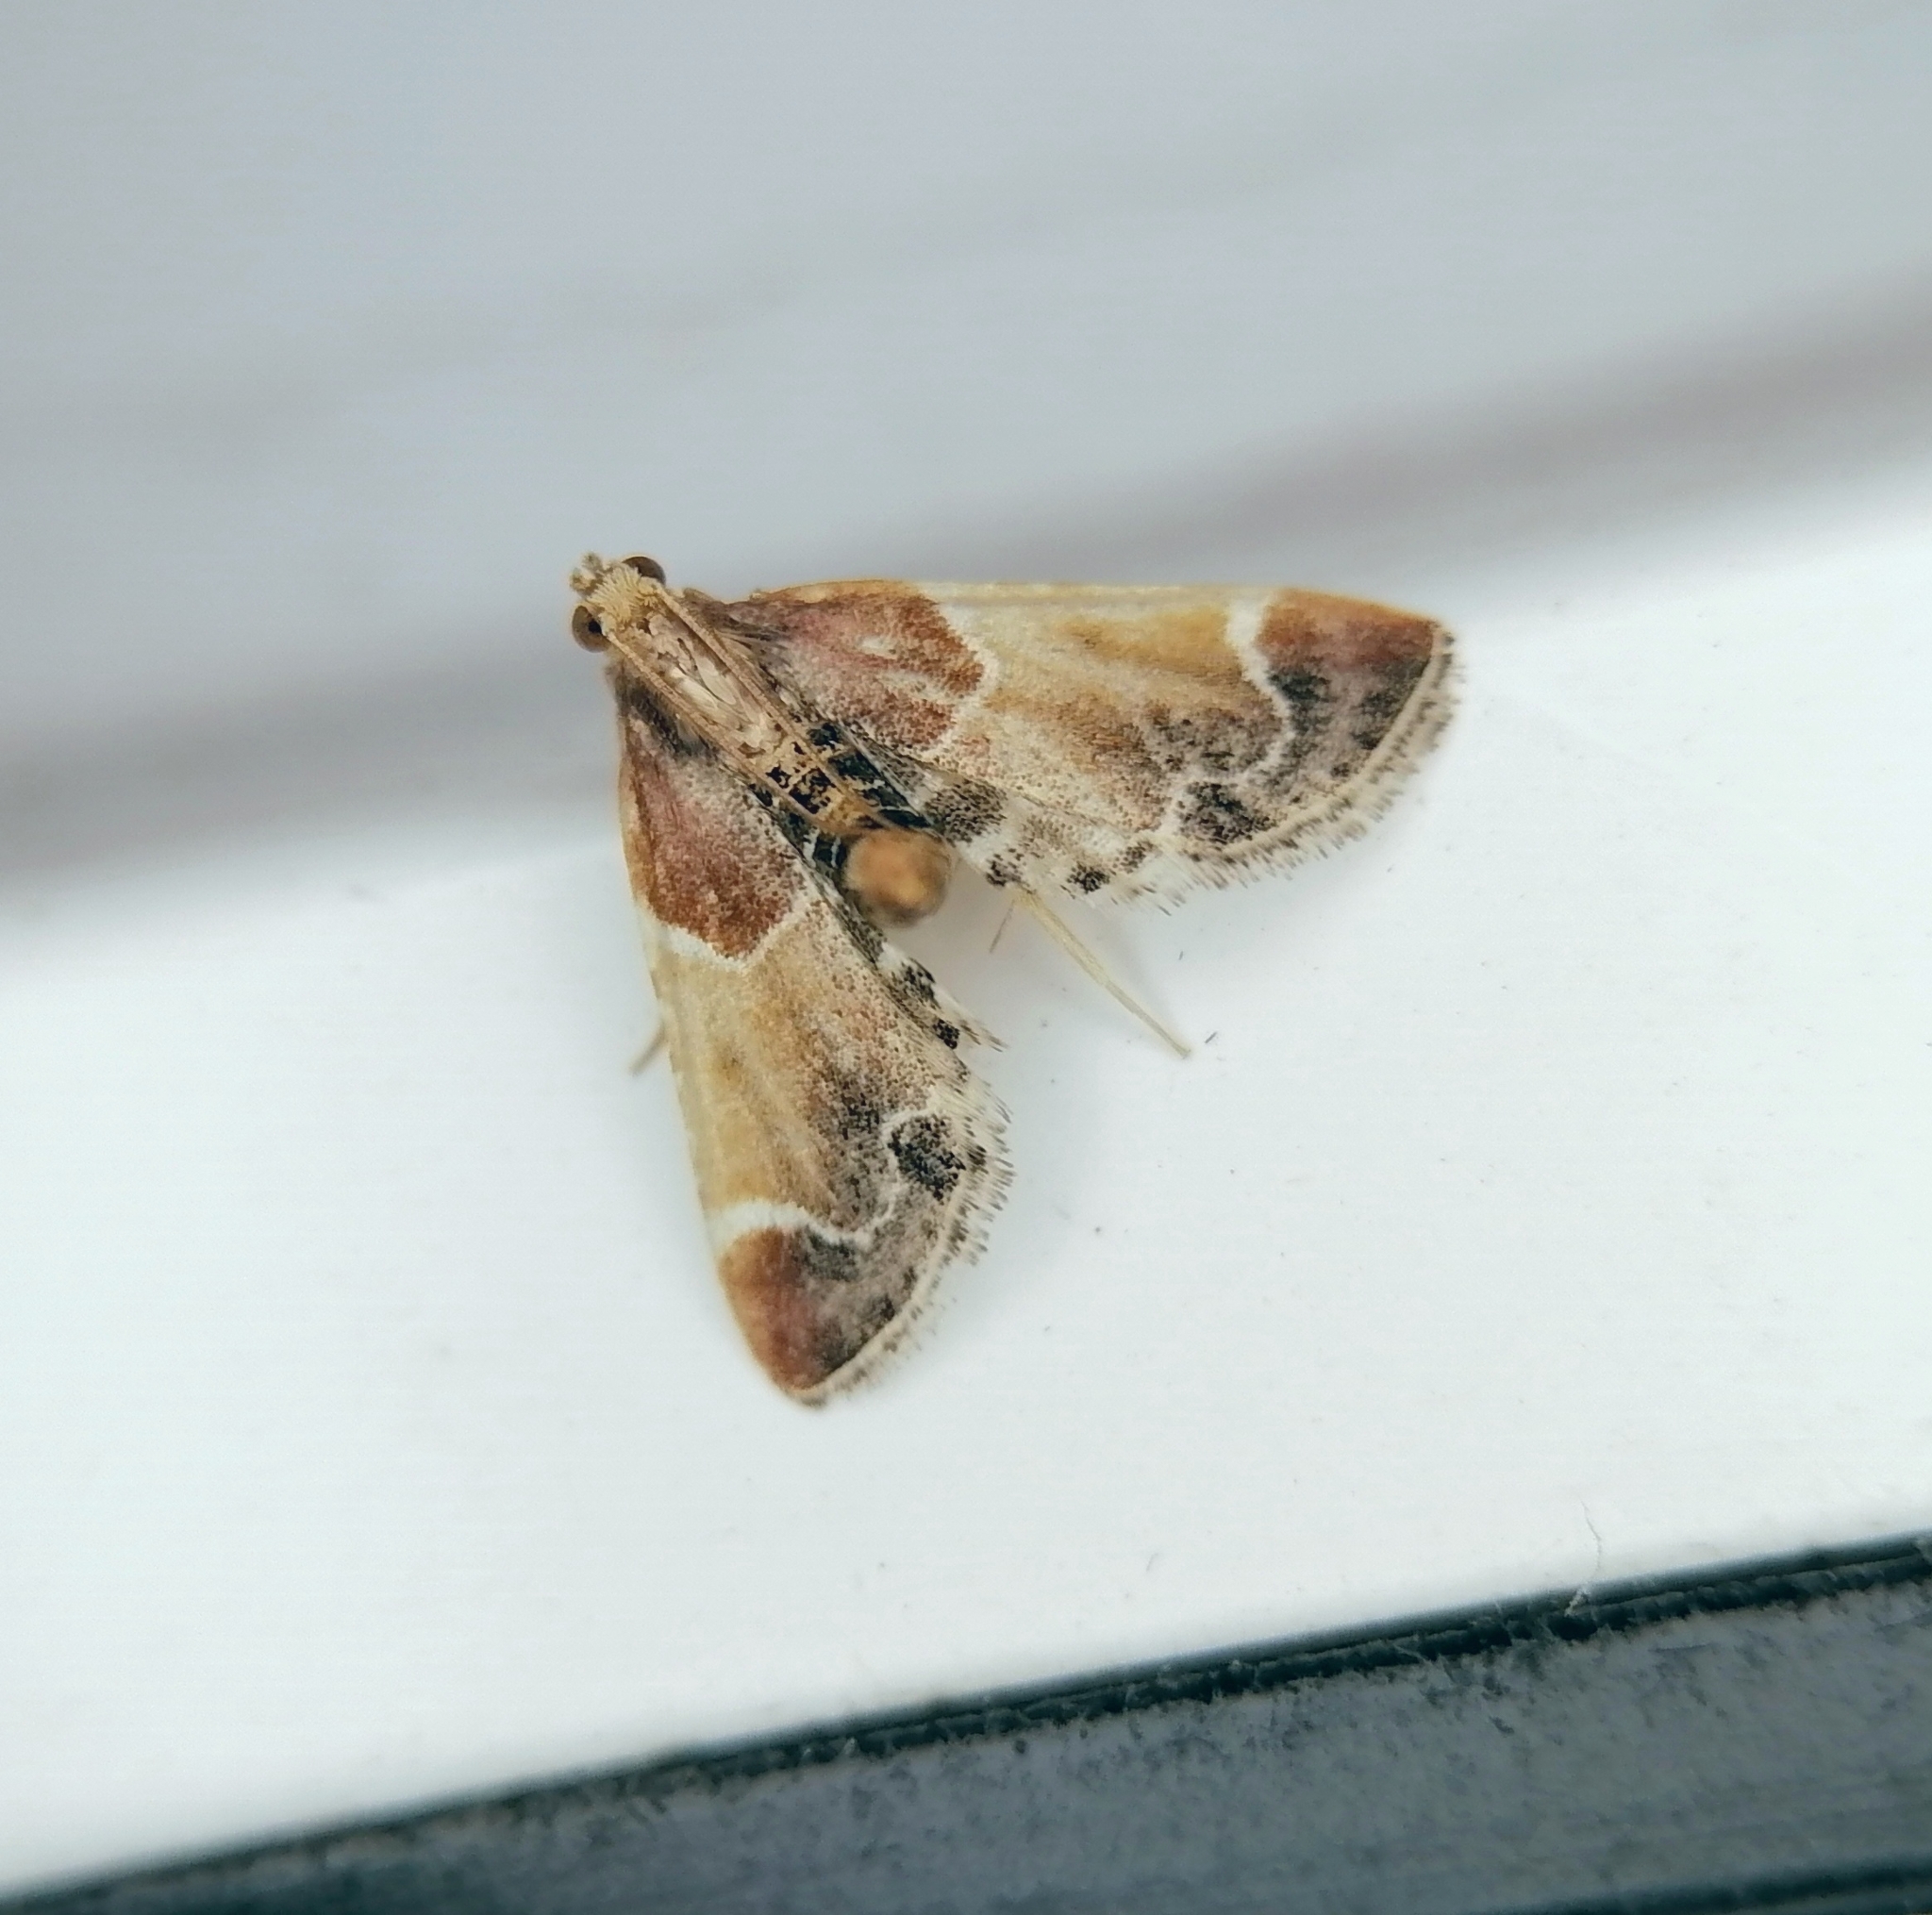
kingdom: Animalia
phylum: Arthropoda
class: Insecta
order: Lepidoptera
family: Pyralidae
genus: Pyralis
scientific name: Pyralis farinalis
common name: Meal moth
